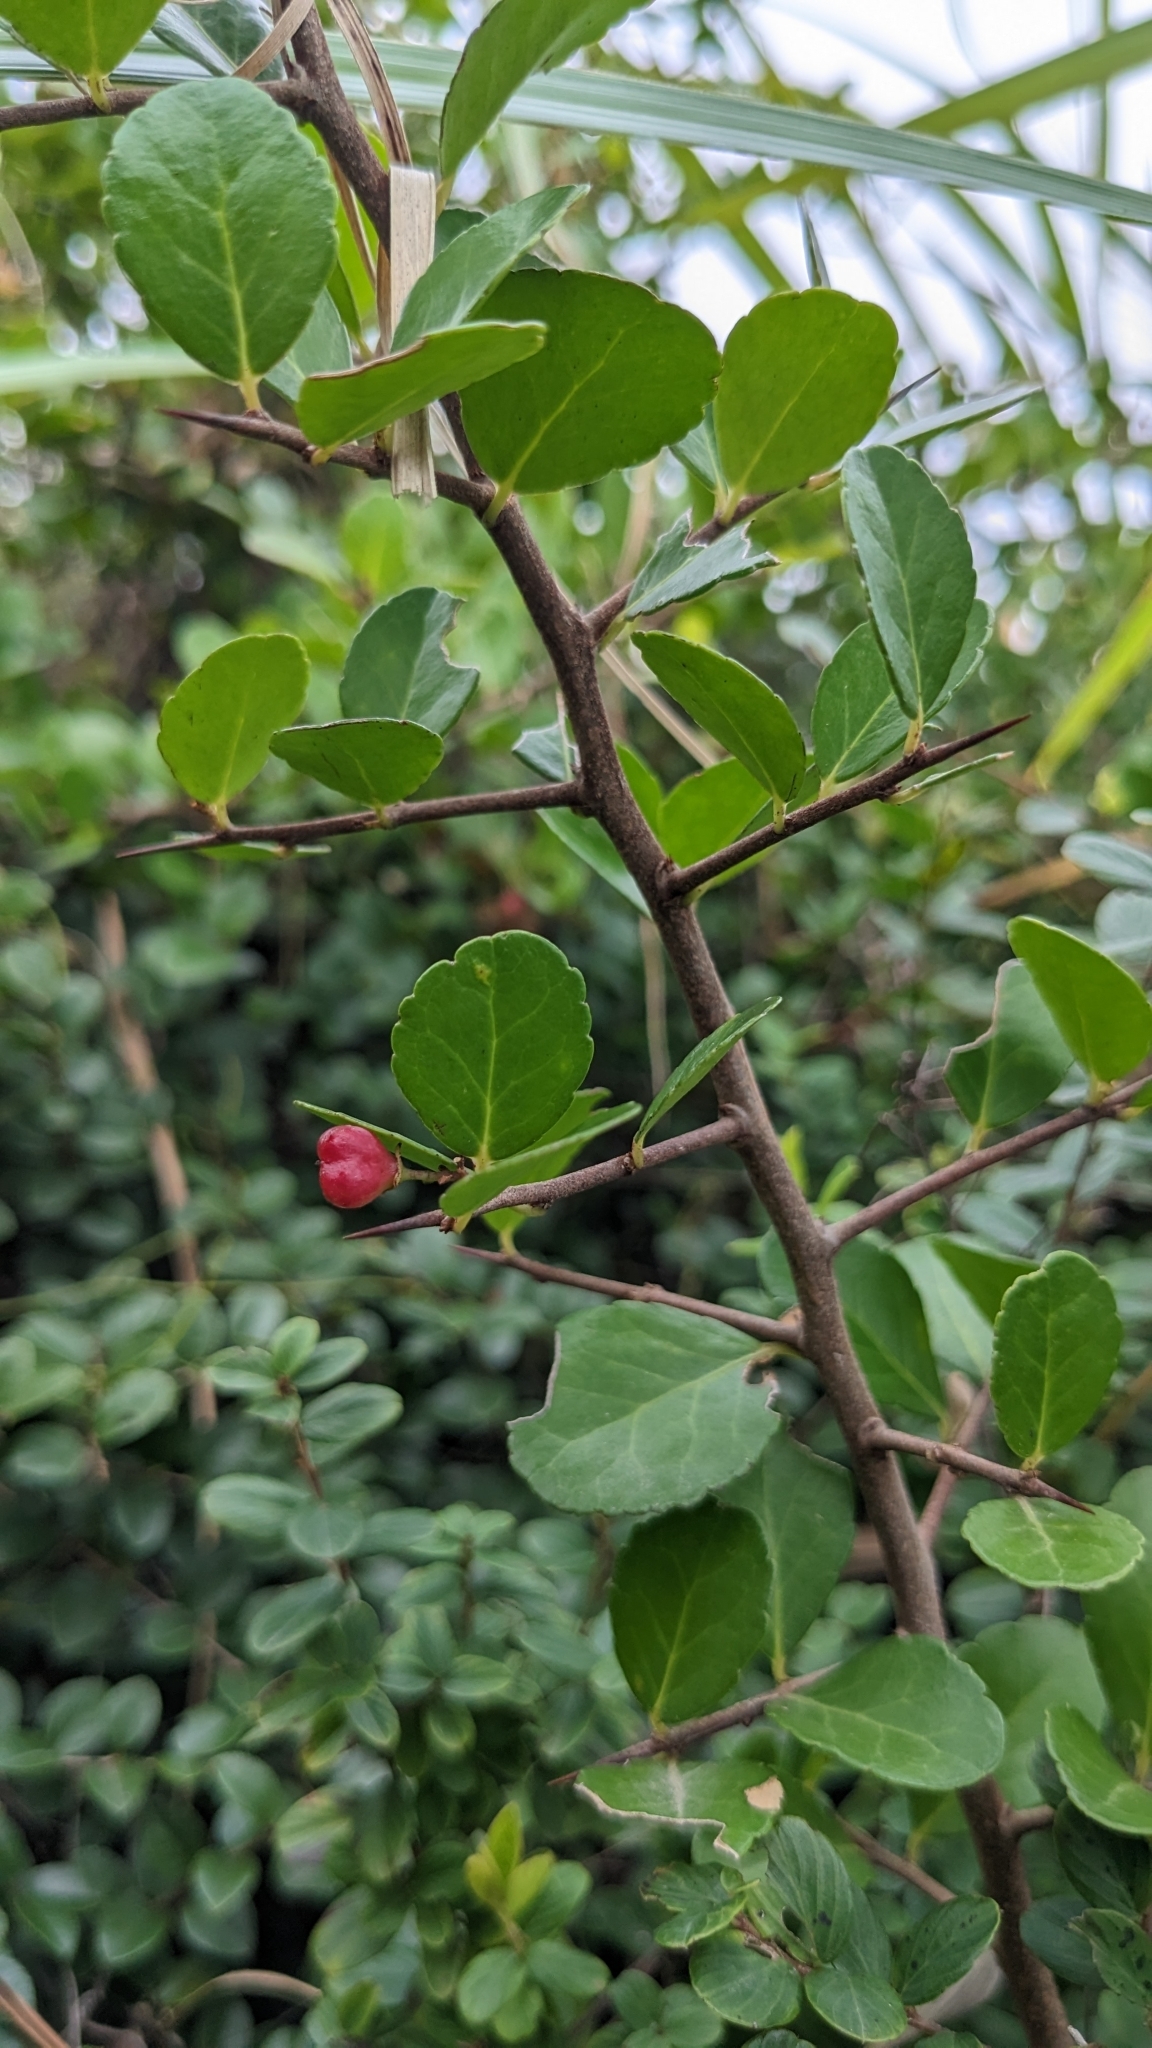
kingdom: Plantae
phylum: Tracheophyta
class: Magnoliopsida
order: Celastrales
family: Celastraceae
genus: Gymnosporia
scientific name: Gymnosporia diversifolia
